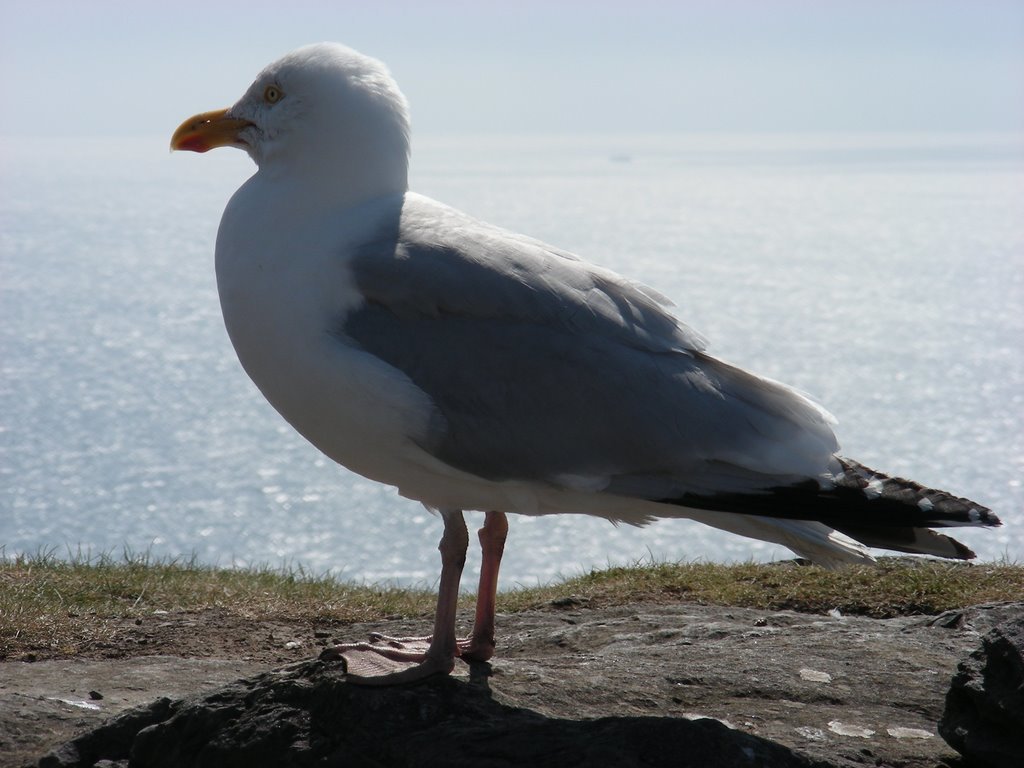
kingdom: Animalia
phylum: Chordata
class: Aves
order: Charadriiformes
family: Laridae
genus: Larus
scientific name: Larus argentatus
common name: Herring gull
